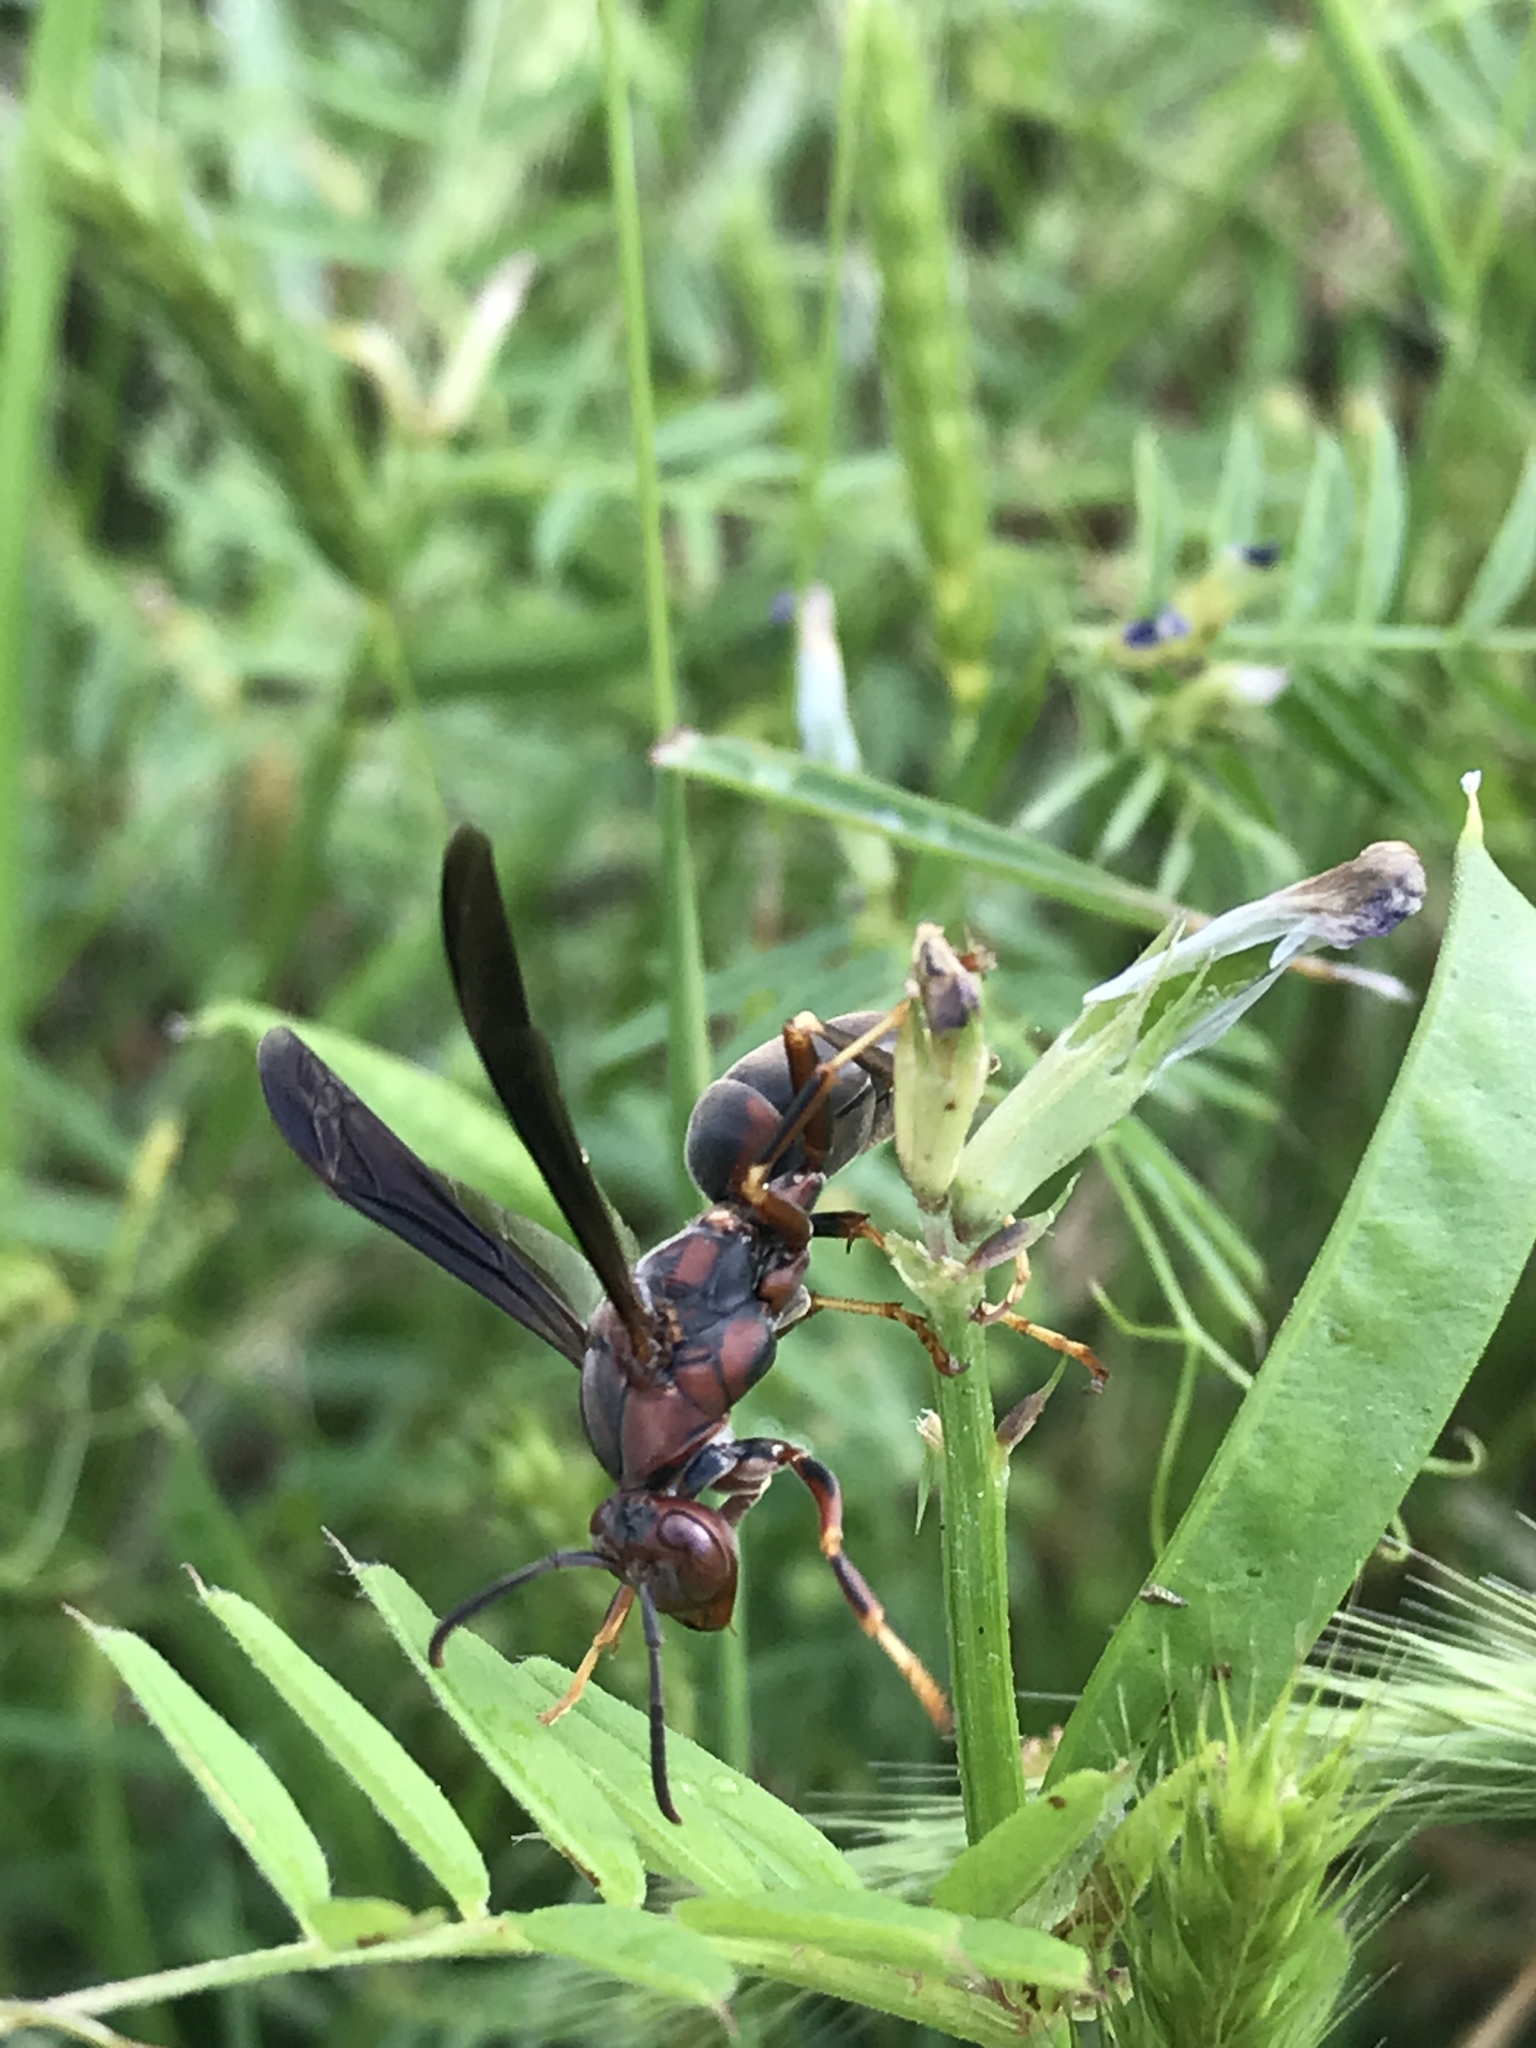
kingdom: Animalia
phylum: Arthropoda
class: Insecta
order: Hymenoptera
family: Eumenidae
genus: Polistes
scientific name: Polistes metricus
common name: Metric paper wasp
